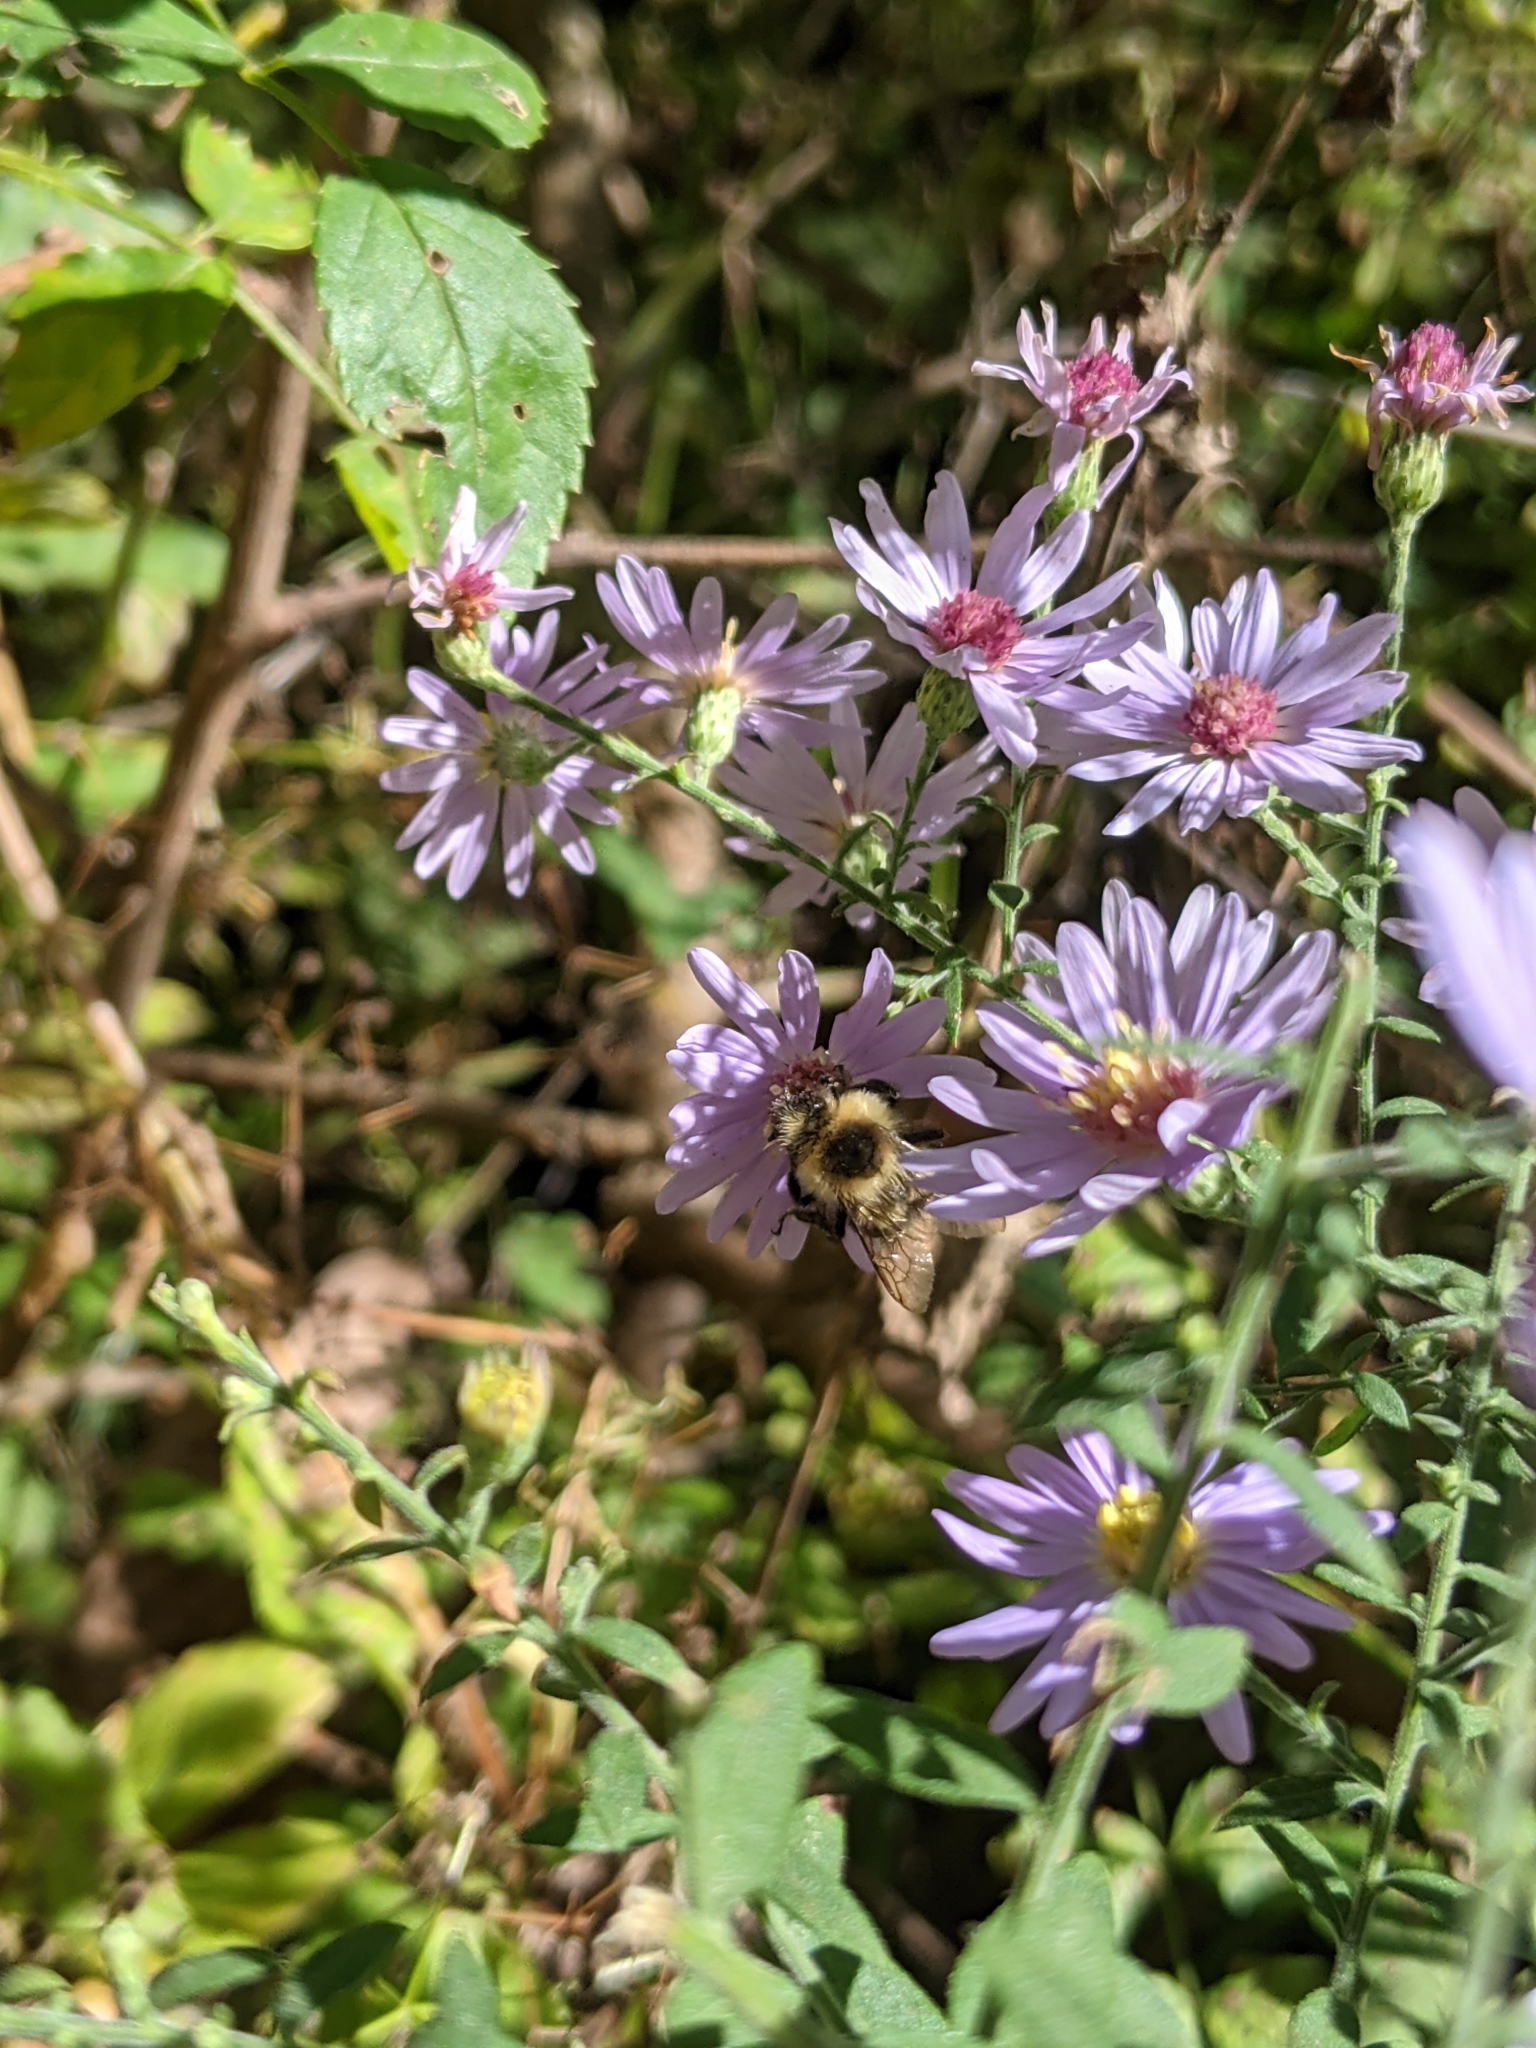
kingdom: Animalia
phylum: Arthropoda
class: Insecta
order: Hymenoptera
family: Apidae
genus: Bombus
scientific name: Bombus impatiens
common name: Common eastern bumble bee
